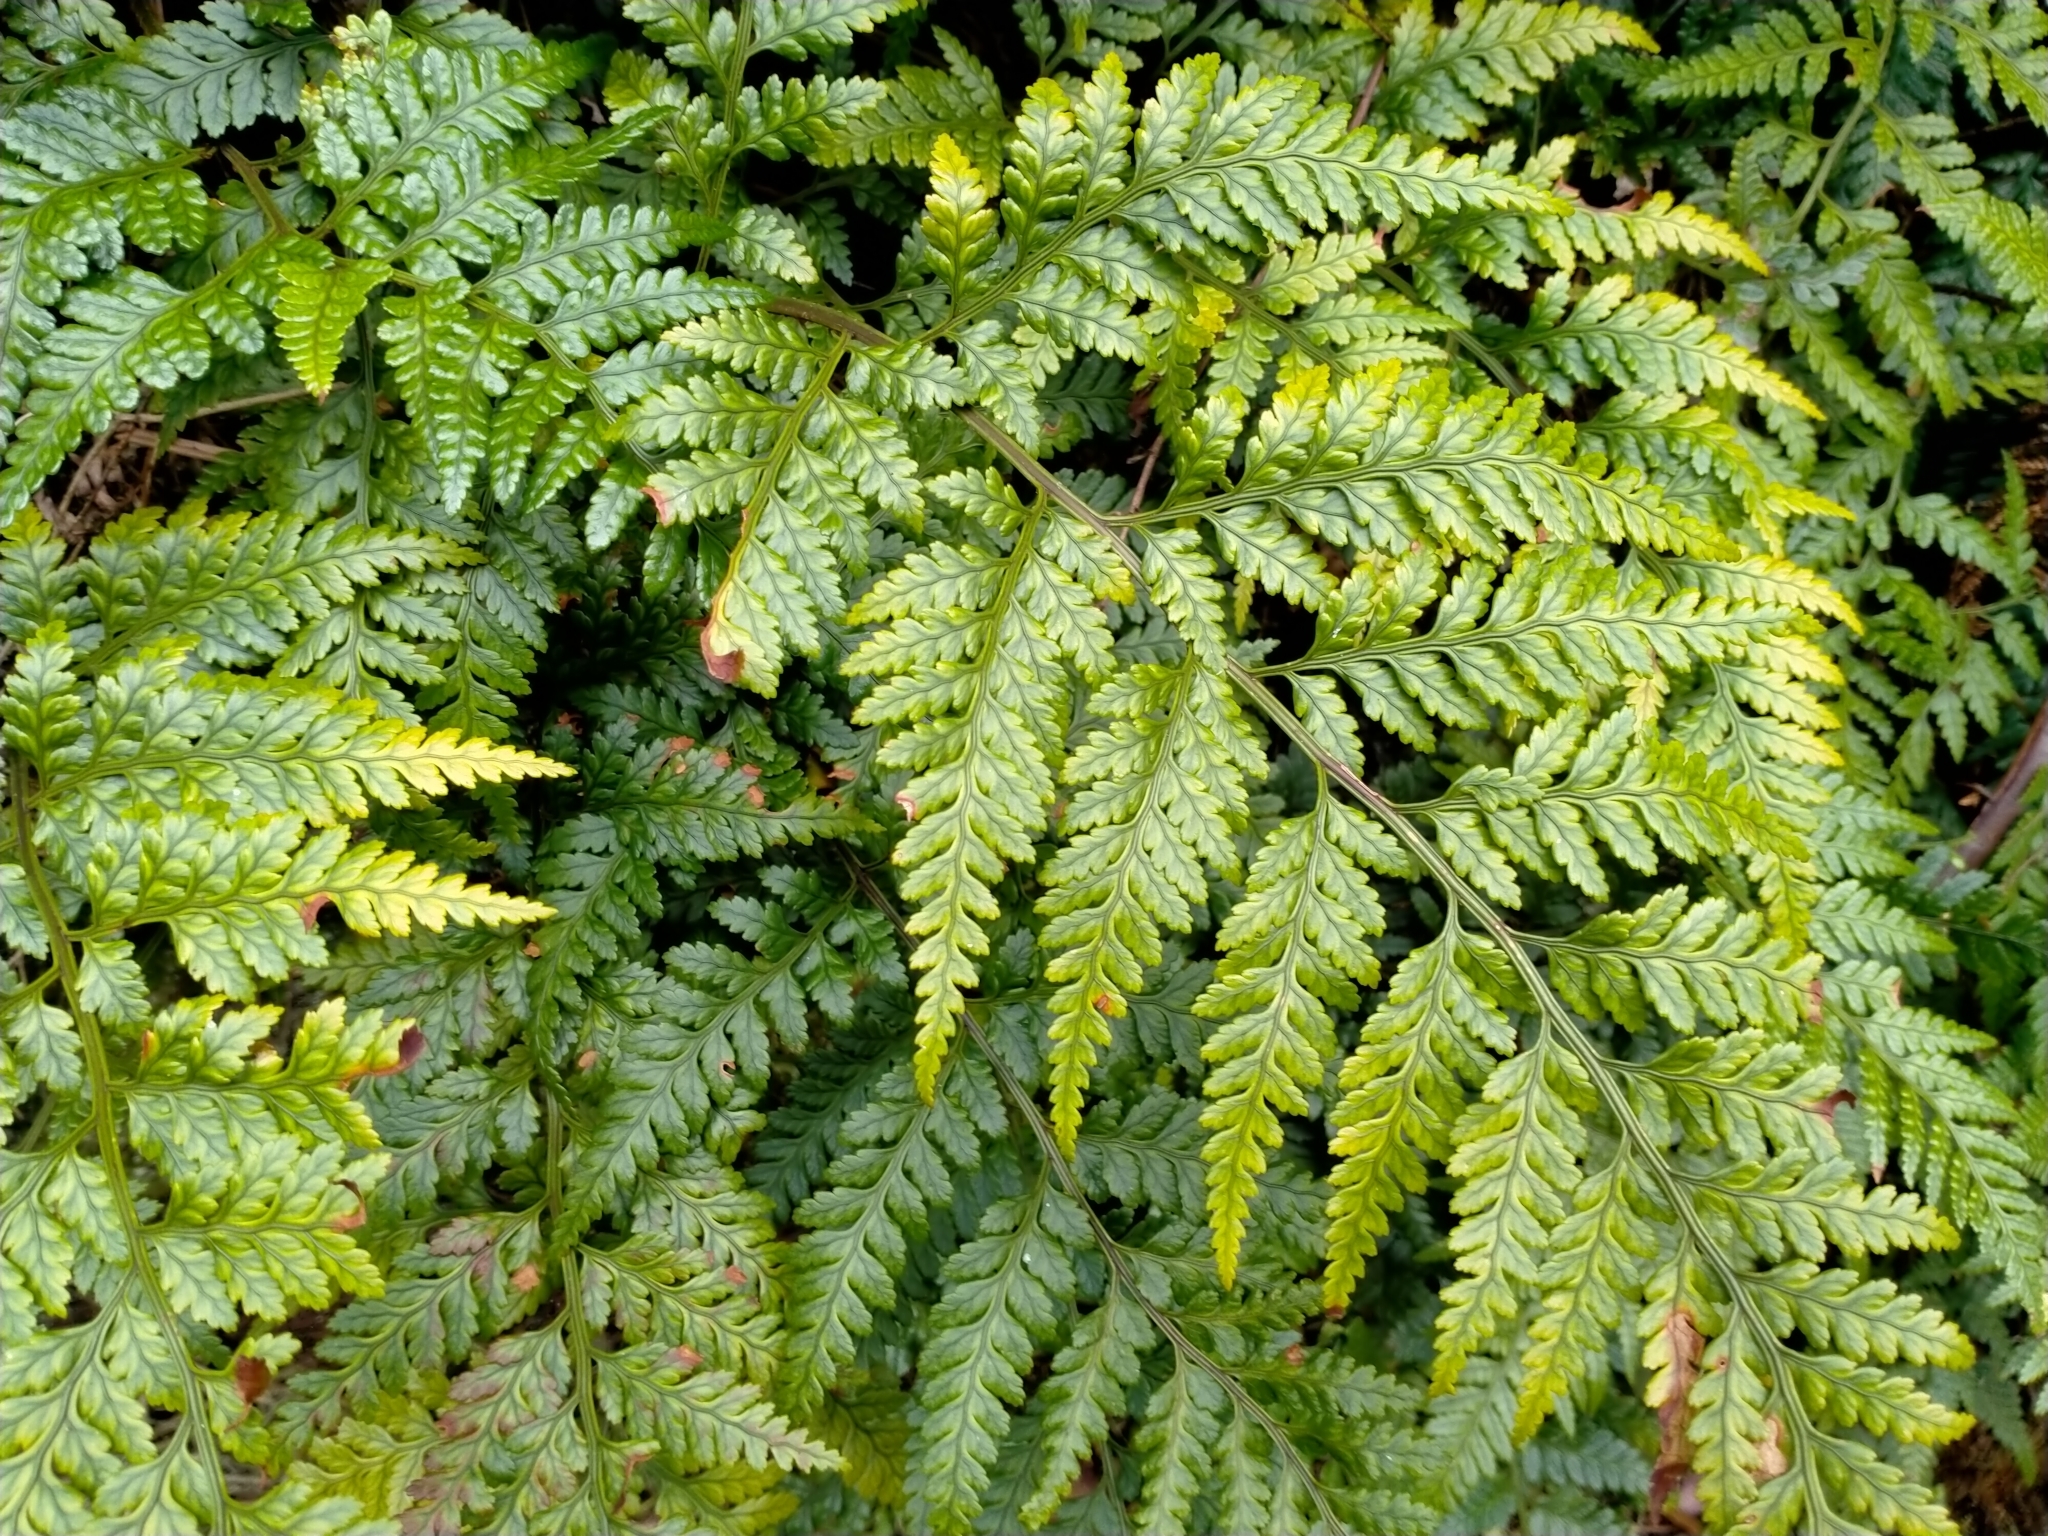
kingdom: Plantae
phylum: Tracheophyta
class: Polypodiopsida
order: Polypodiales
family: Dryopteridaceae
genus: Rumohra
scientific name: Rumohra adiantiformis
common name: Leather fern
